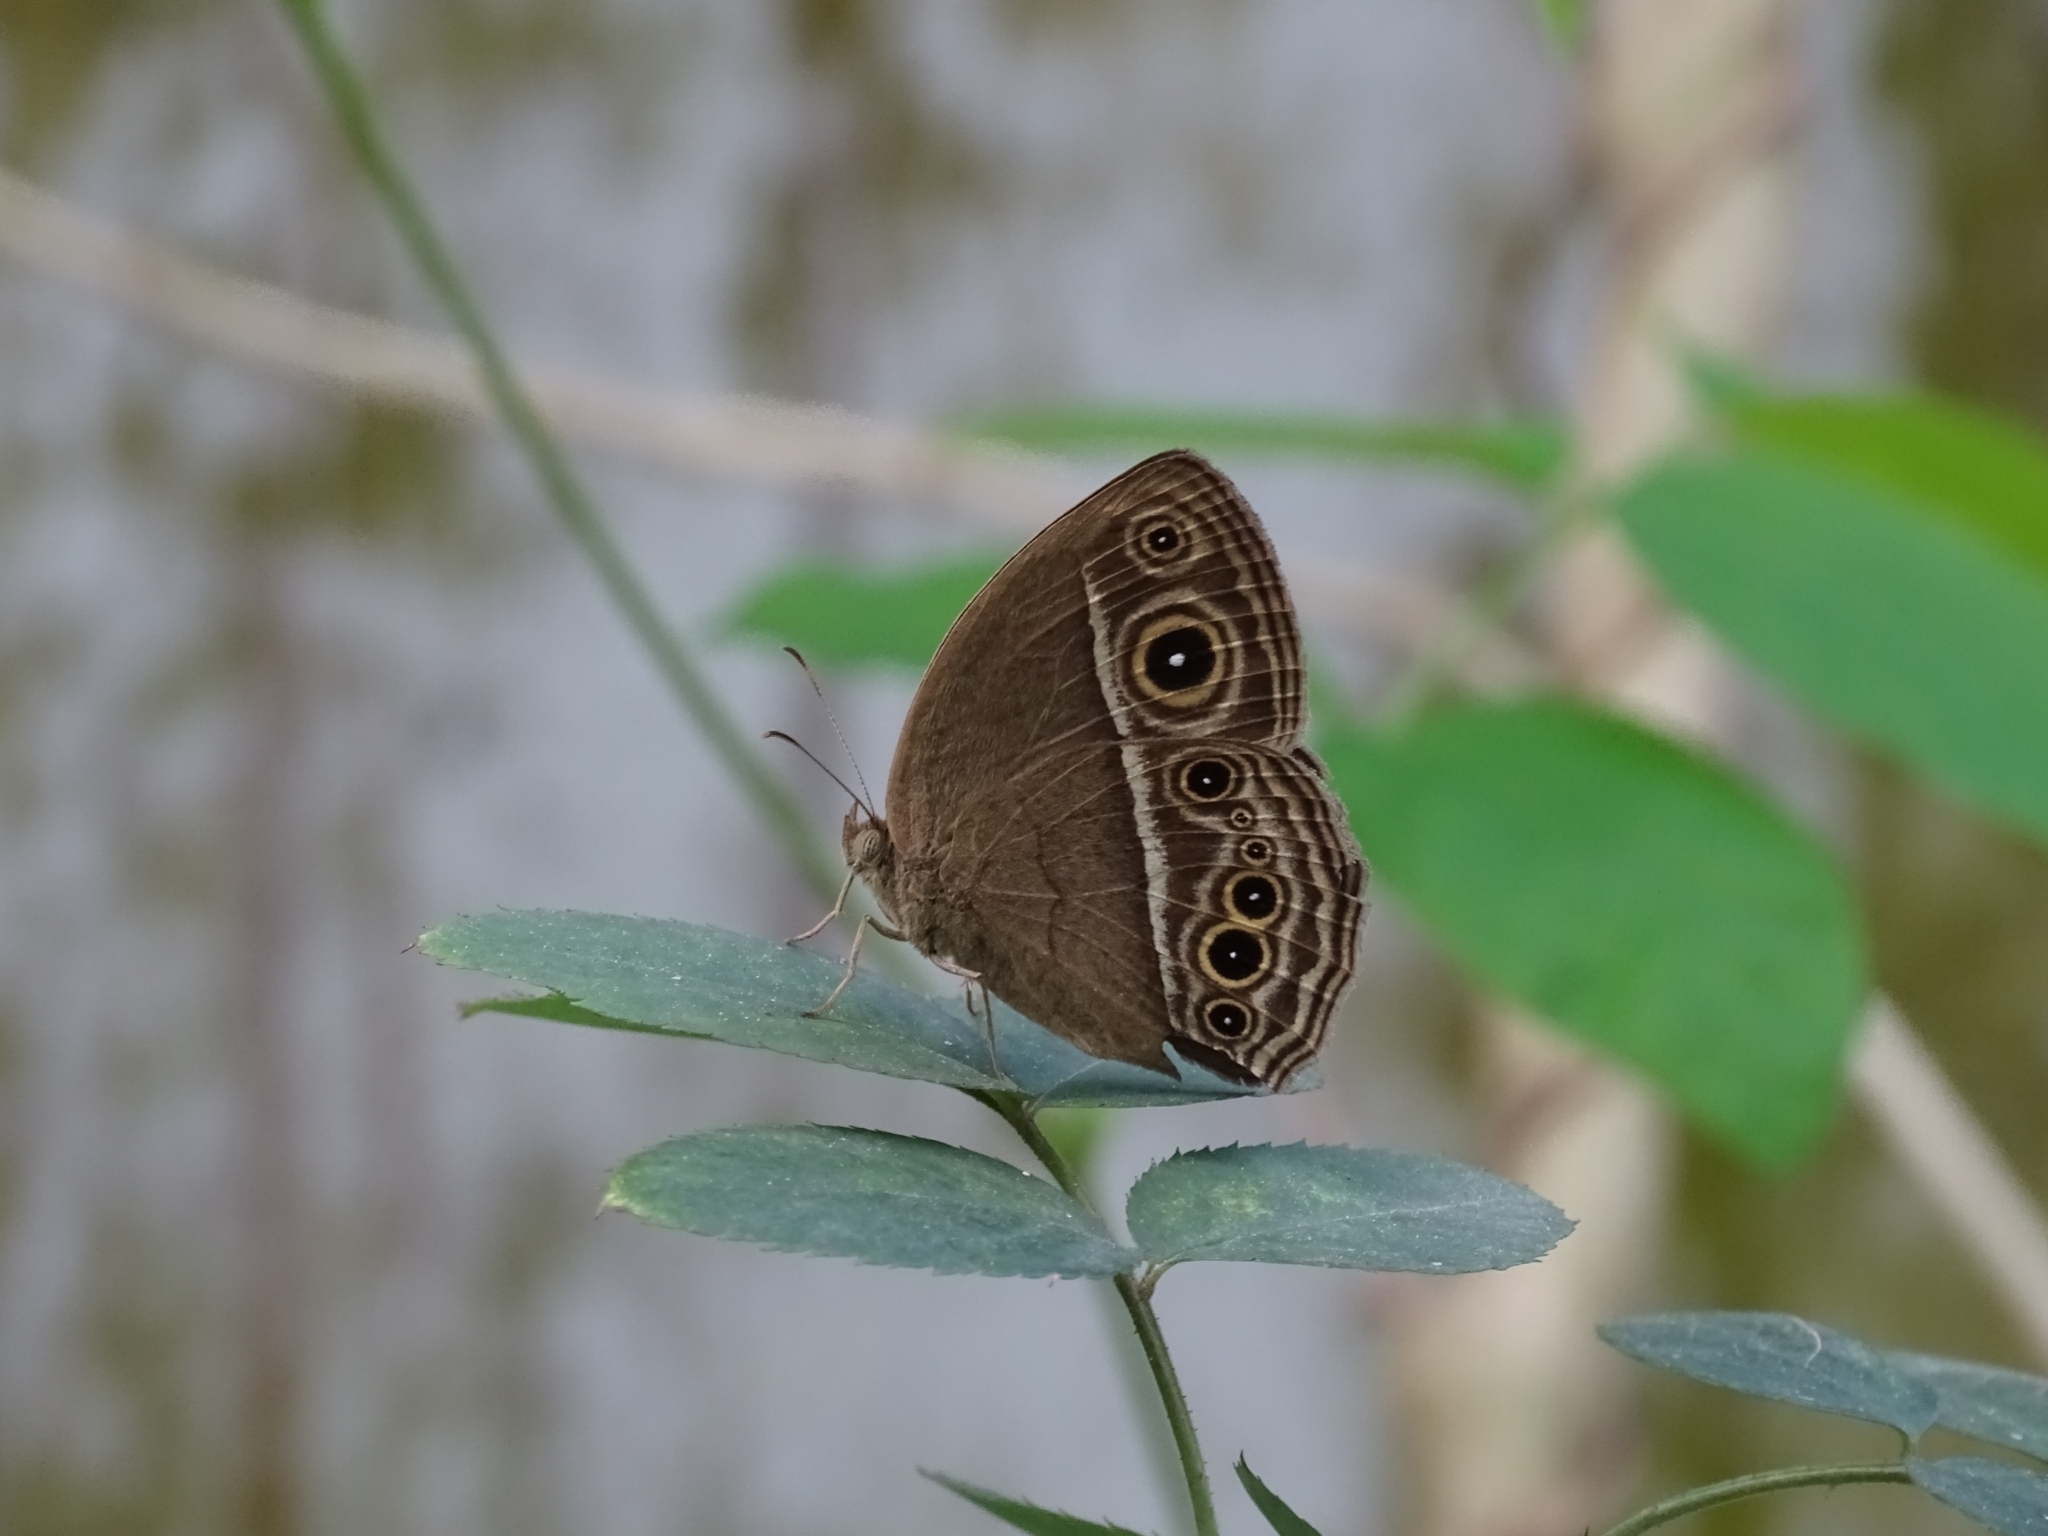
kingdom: Animalia
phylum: Arthropoda
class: Insecta
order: Lepidoptera
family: Nymphalidae
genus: Mycalesis
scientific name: Mycalesis mineus
